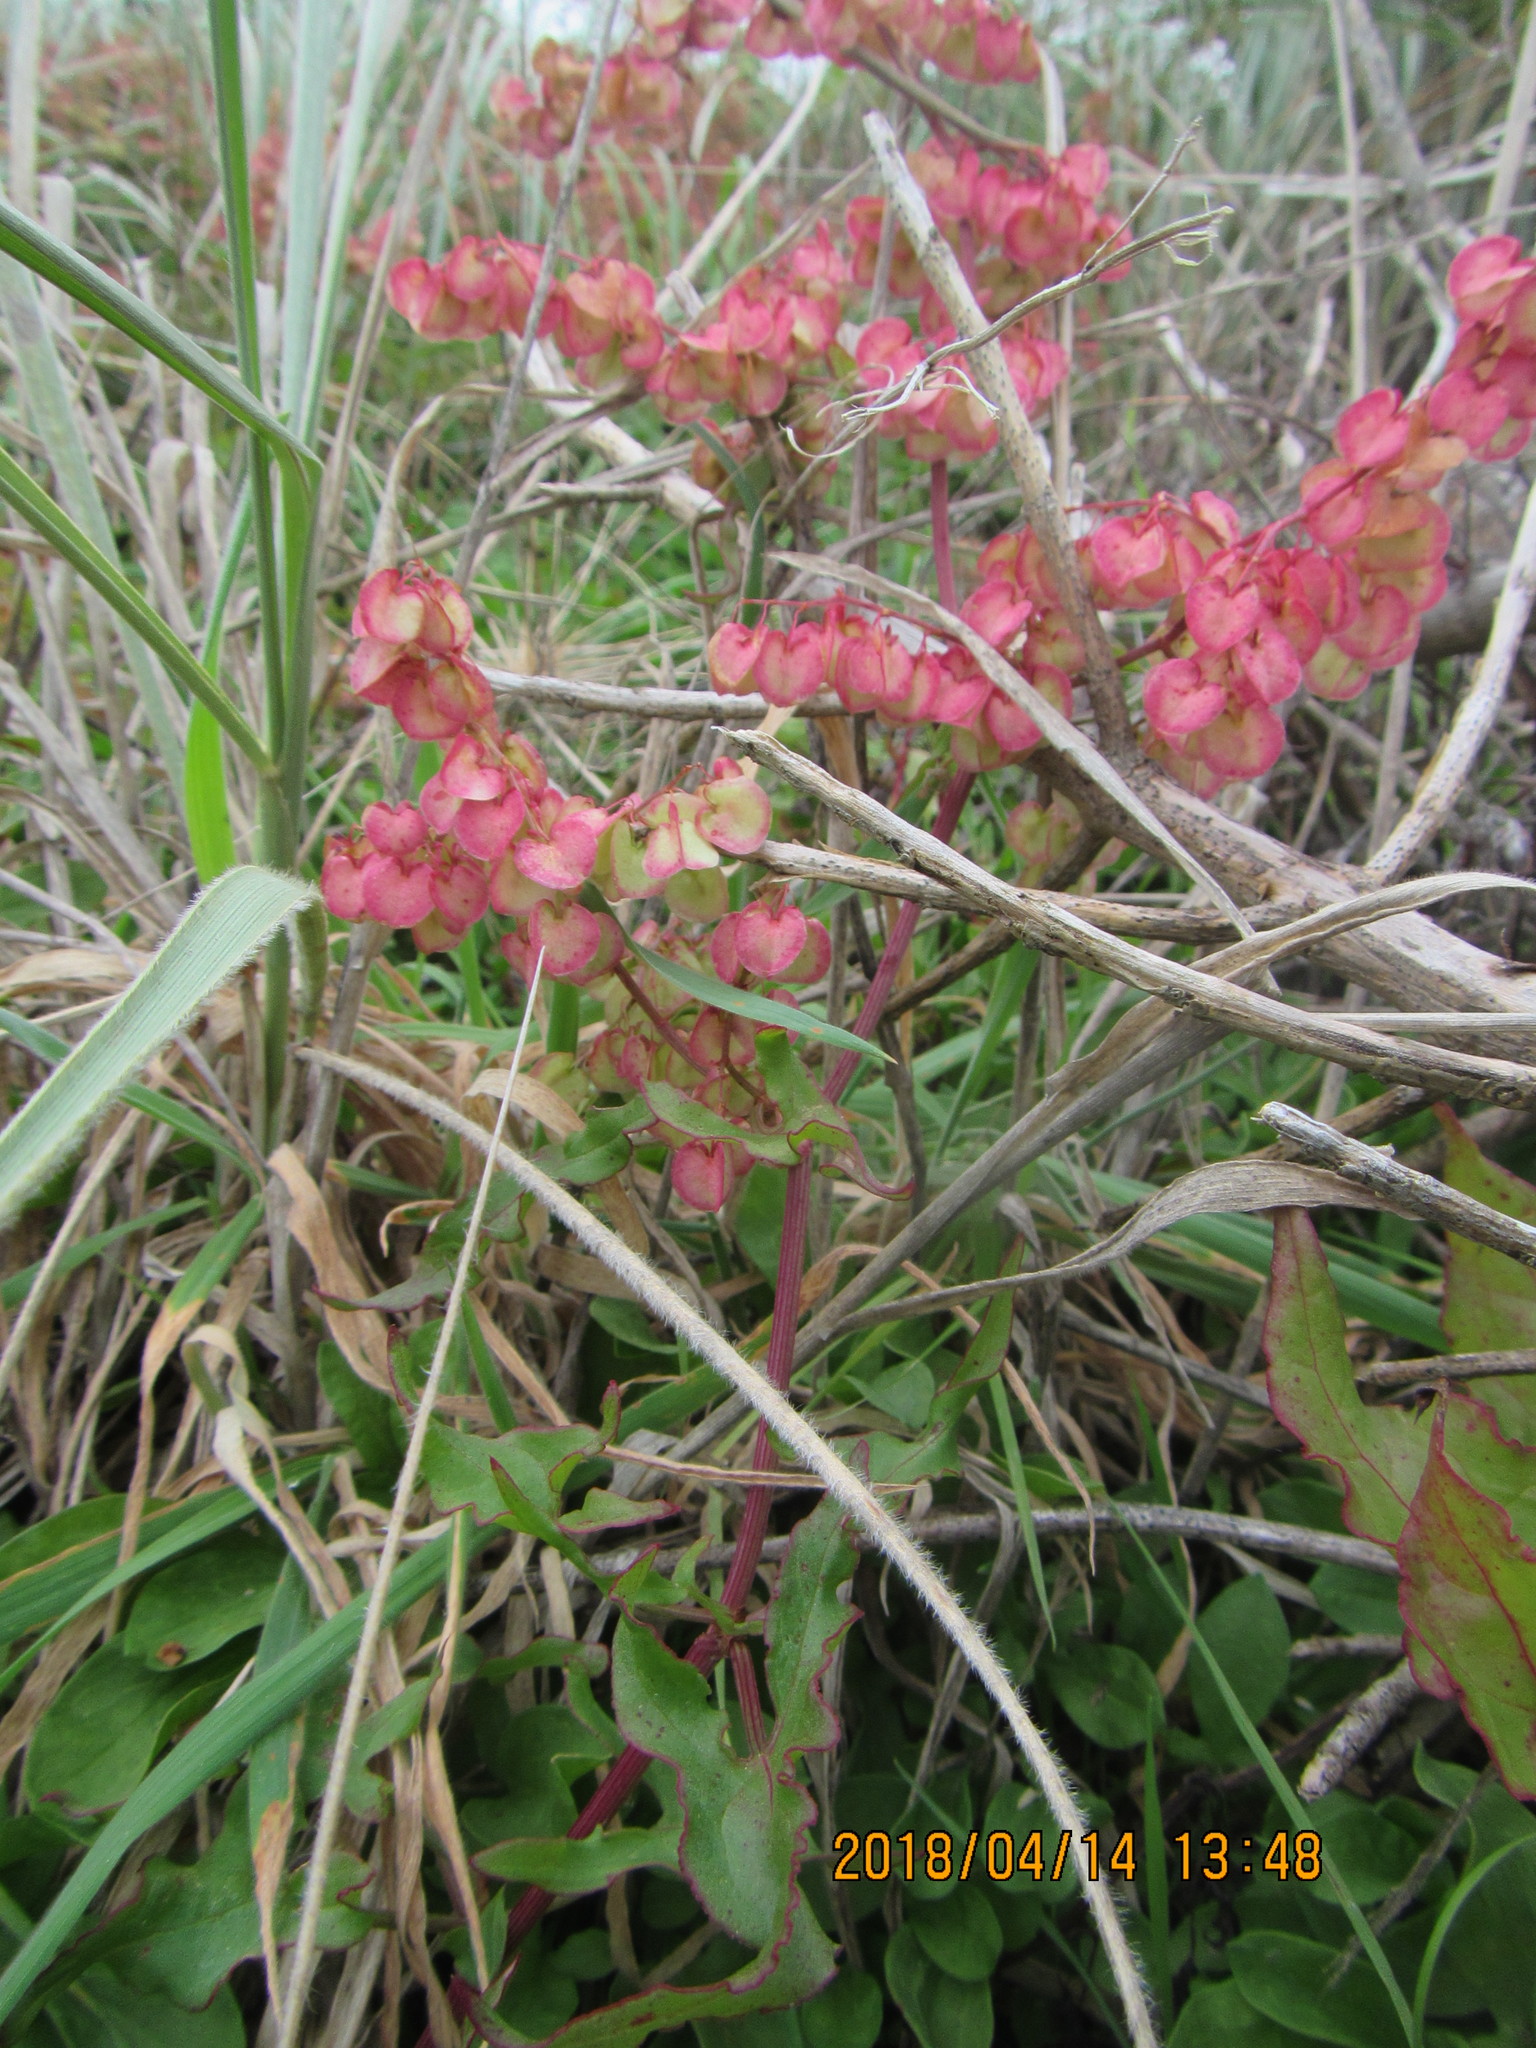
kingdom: Plantae
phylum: Tracheophyta
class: Magnoliopsida
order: Caryophyllales
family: Polygonaceae
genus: Rumex
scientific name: Rumex sagittatus
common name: Climbing dock
